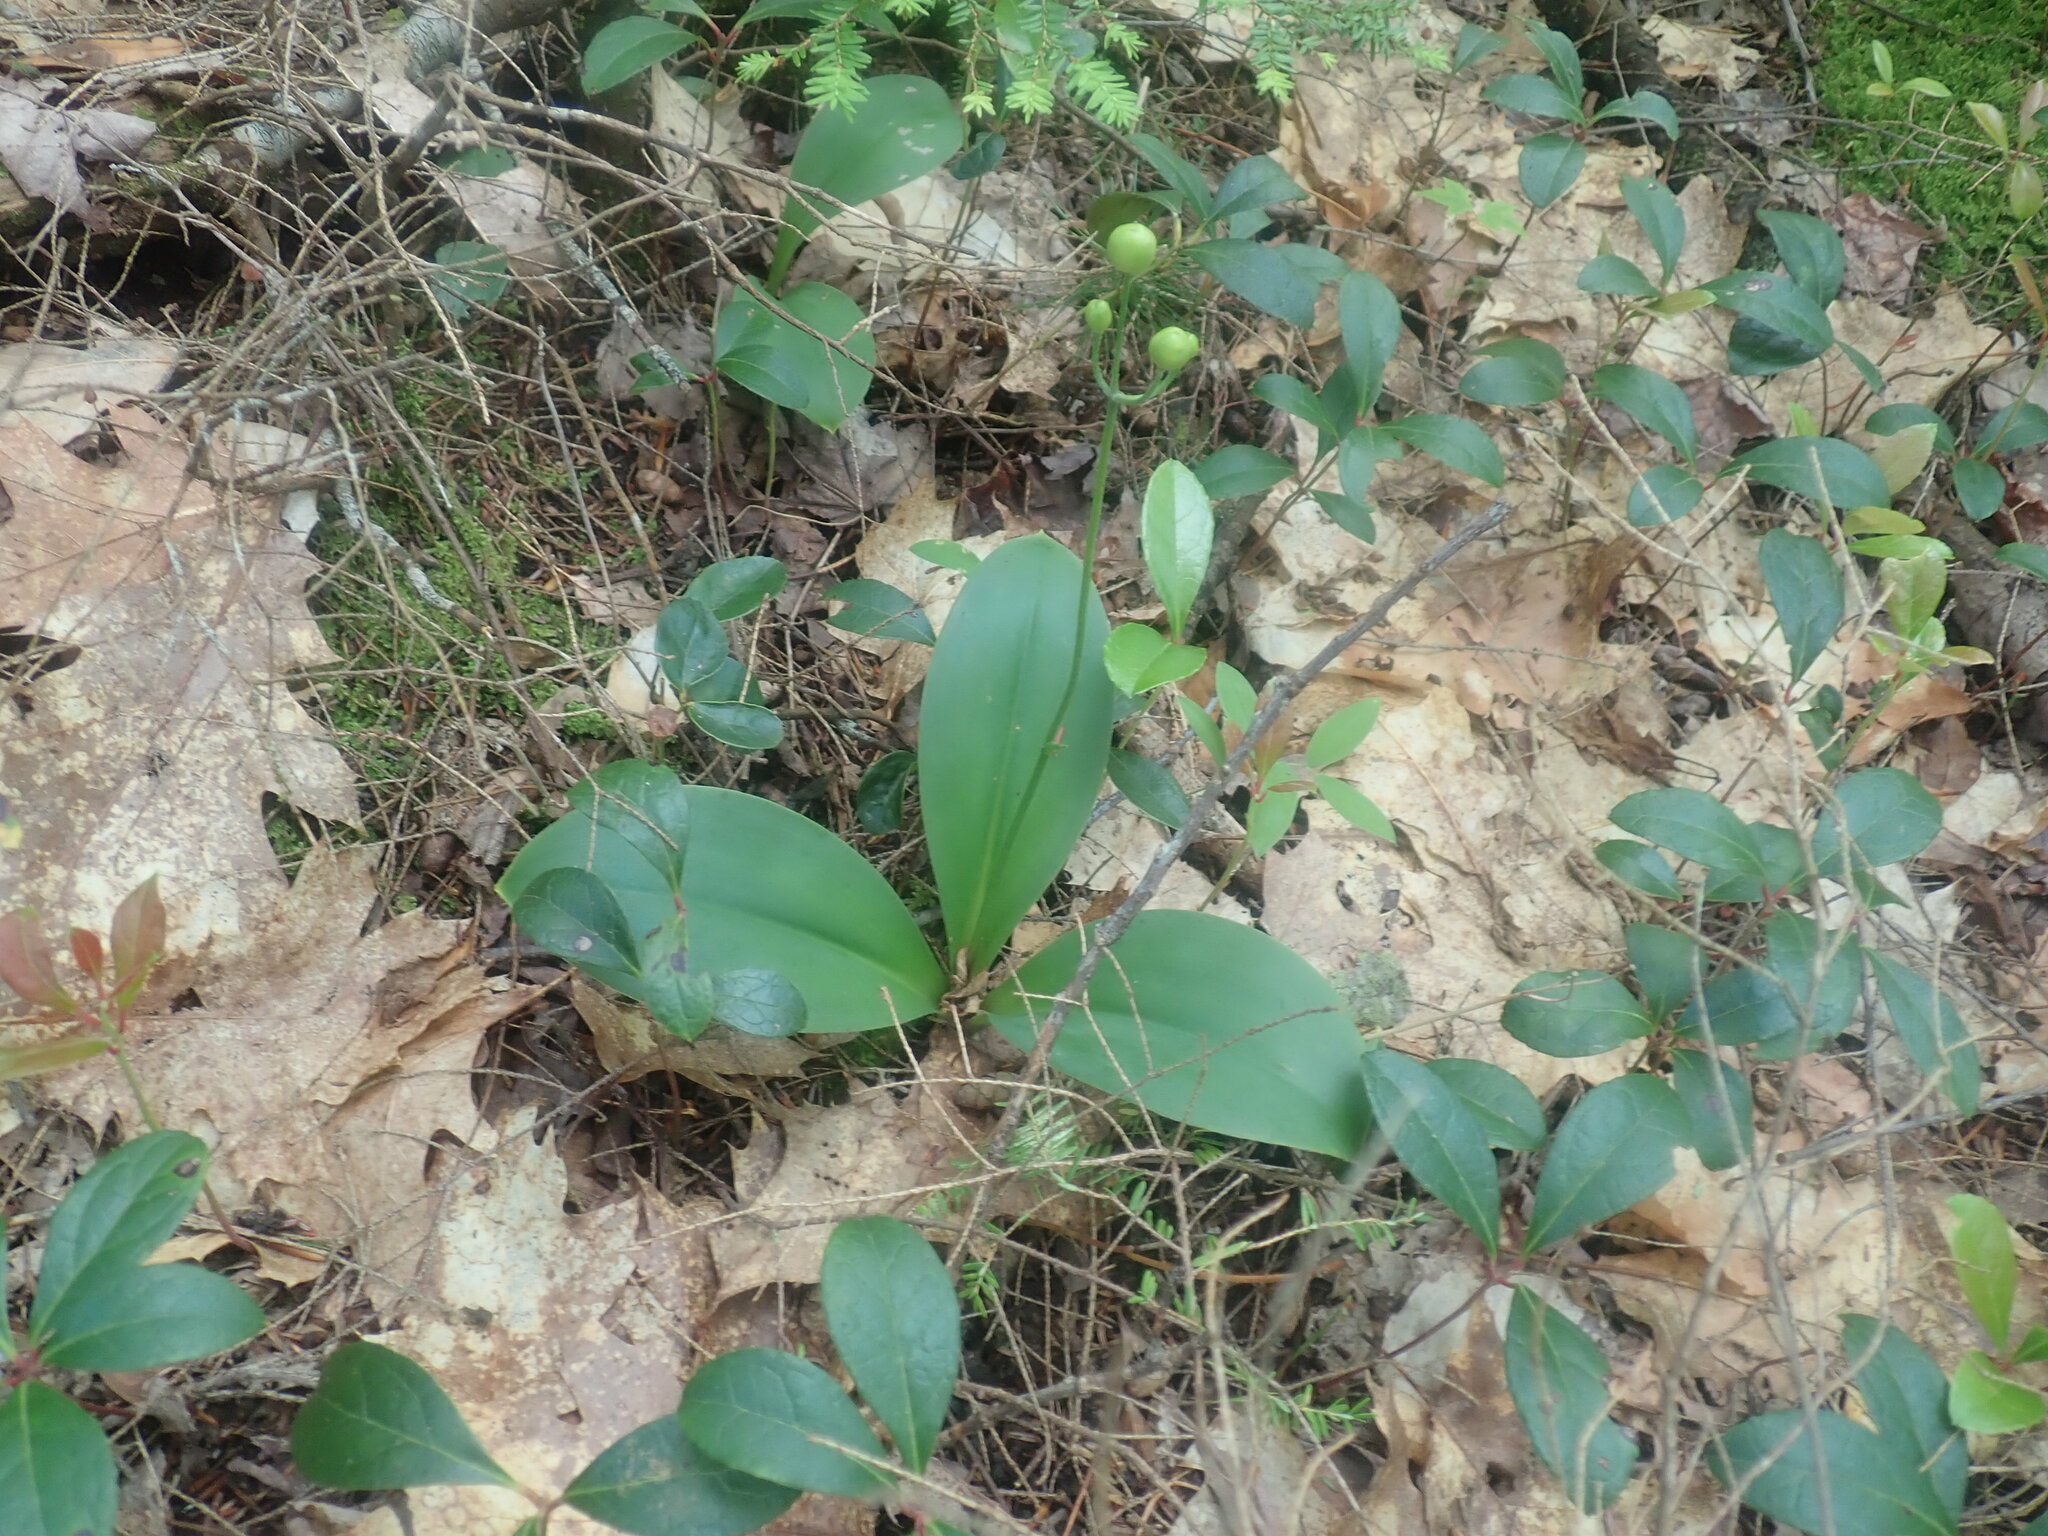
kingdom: Plantae
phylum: Tracheophyta
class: Liliopsida
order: Liliales
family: Liliaceae
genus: Clintonia
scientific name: Clintonia borealis
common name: Yellow clintonia
